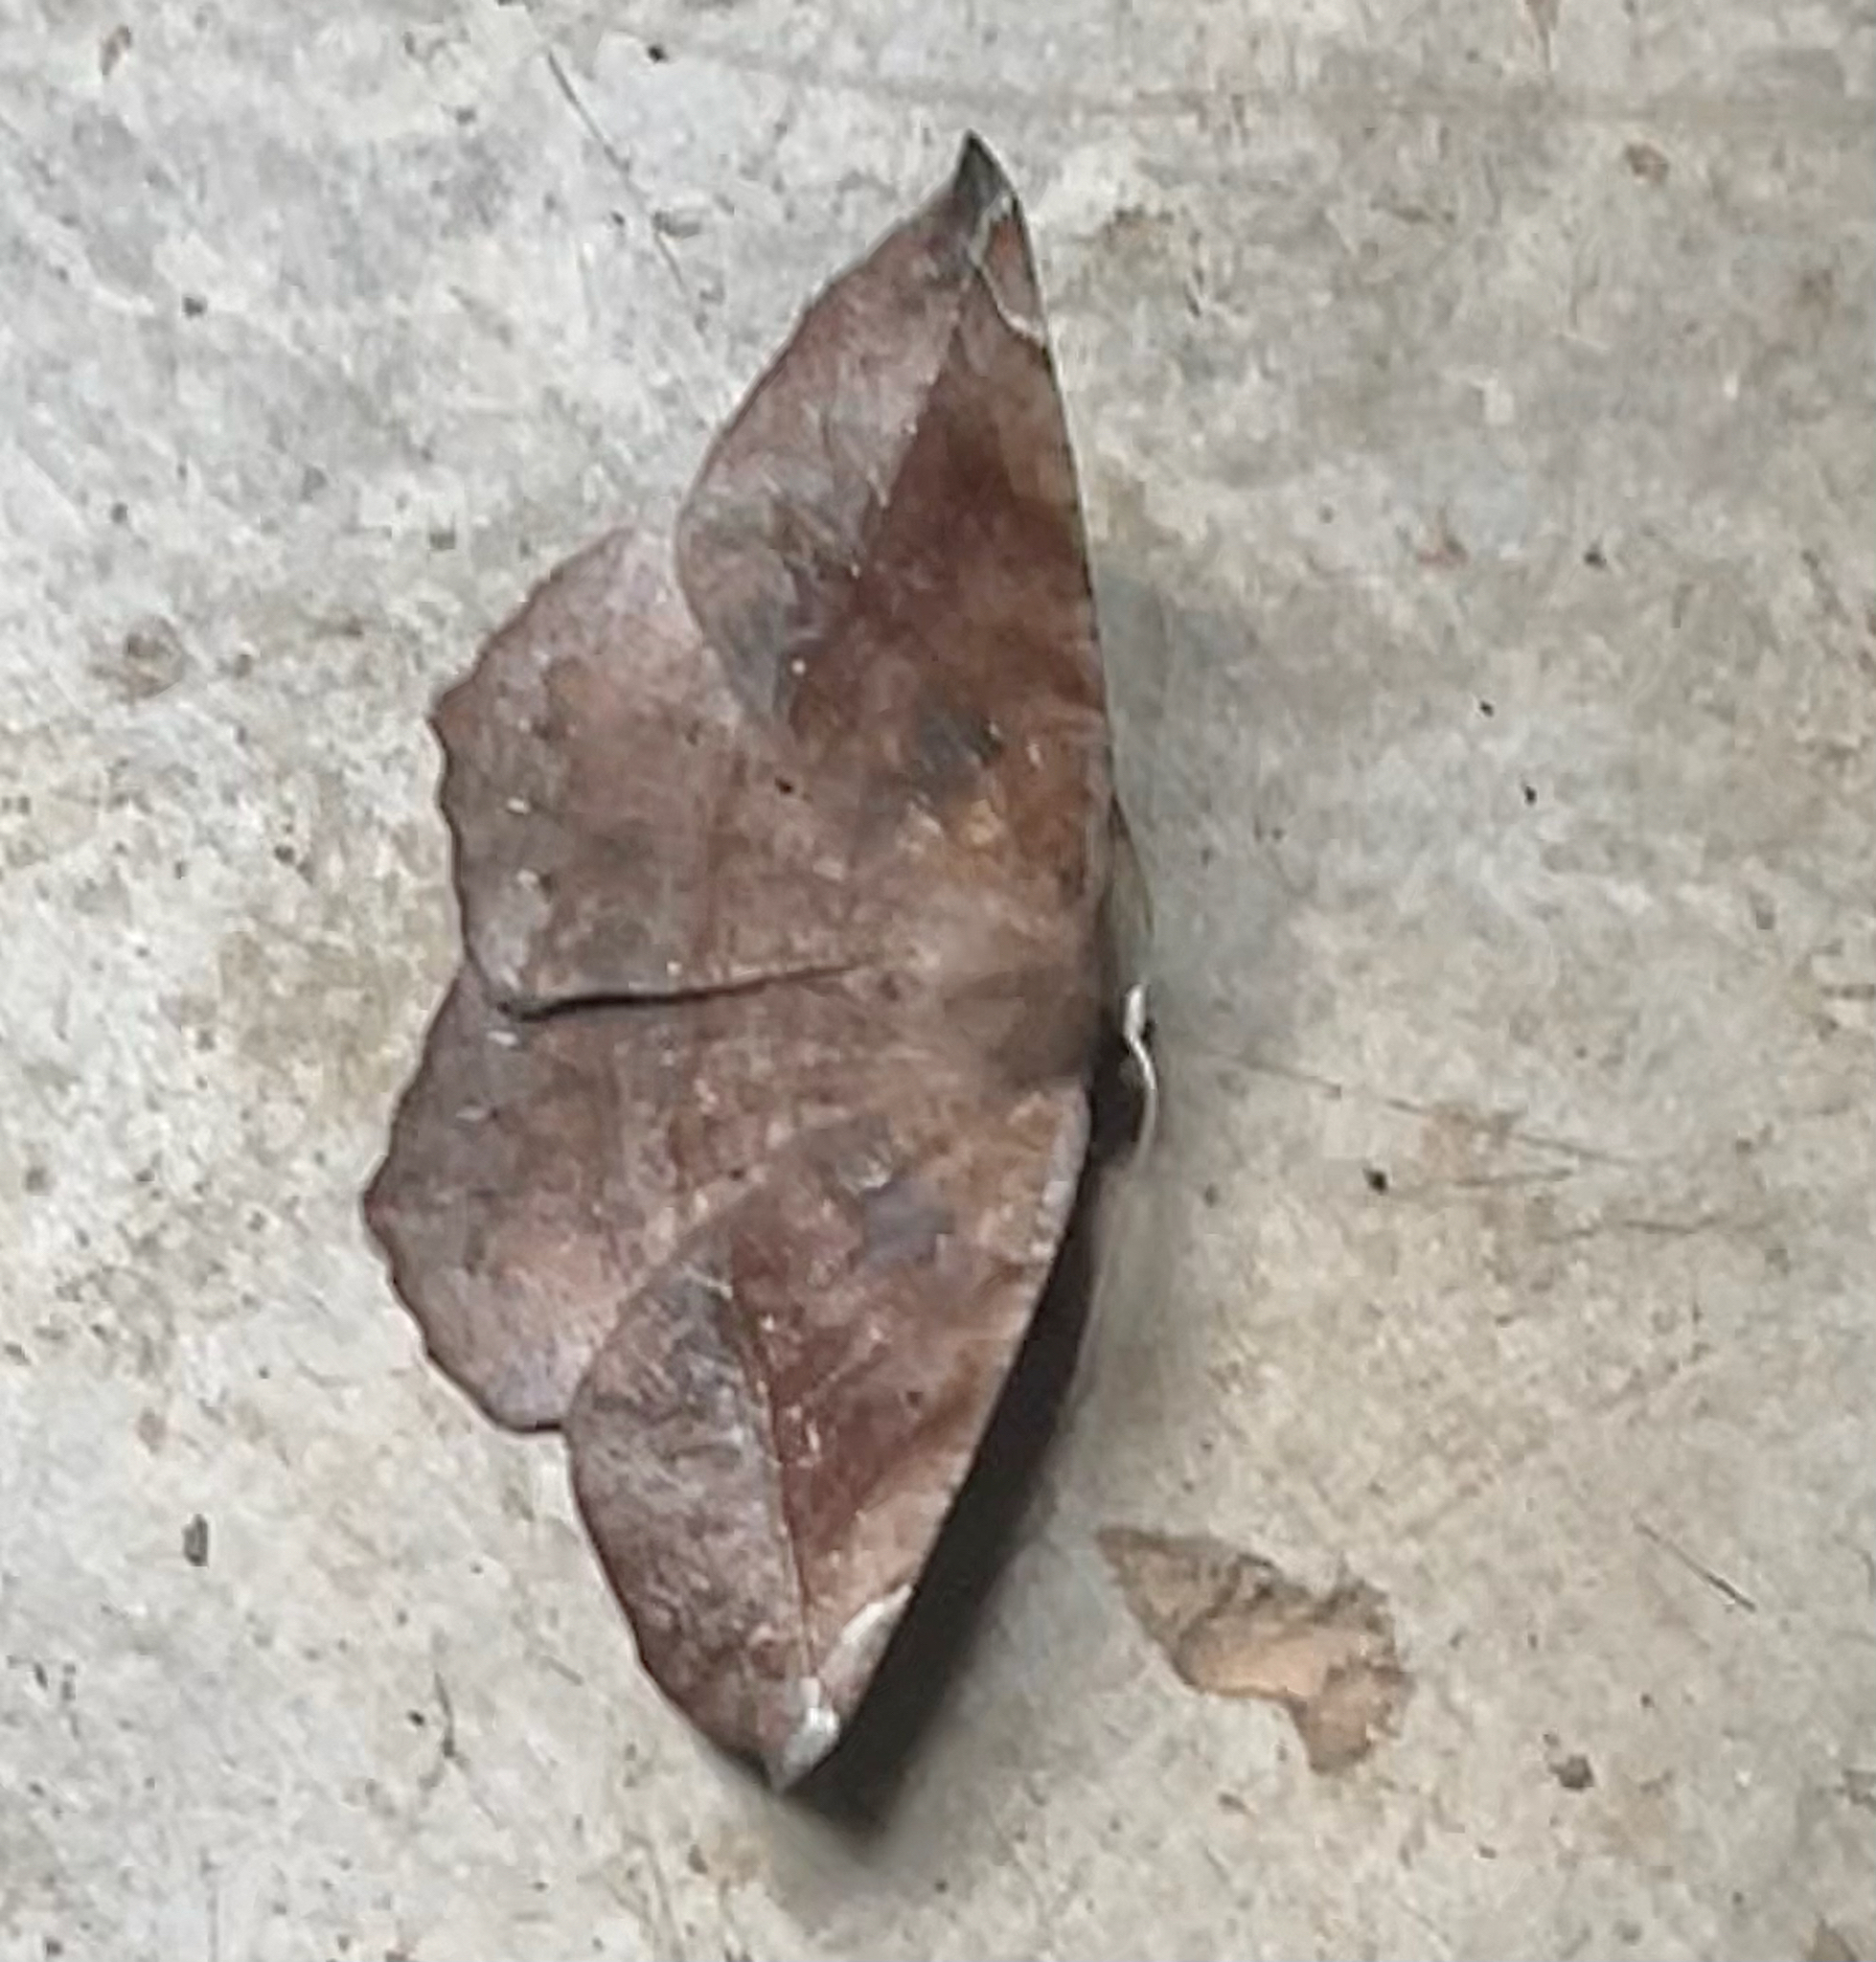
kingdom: Animalia
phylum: Arthropoda
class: Insecta
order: Lepidoptera
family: Geometridae
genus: Eutrapela
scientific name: Eutrapela clemataria
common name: Curved-toothed geometer
